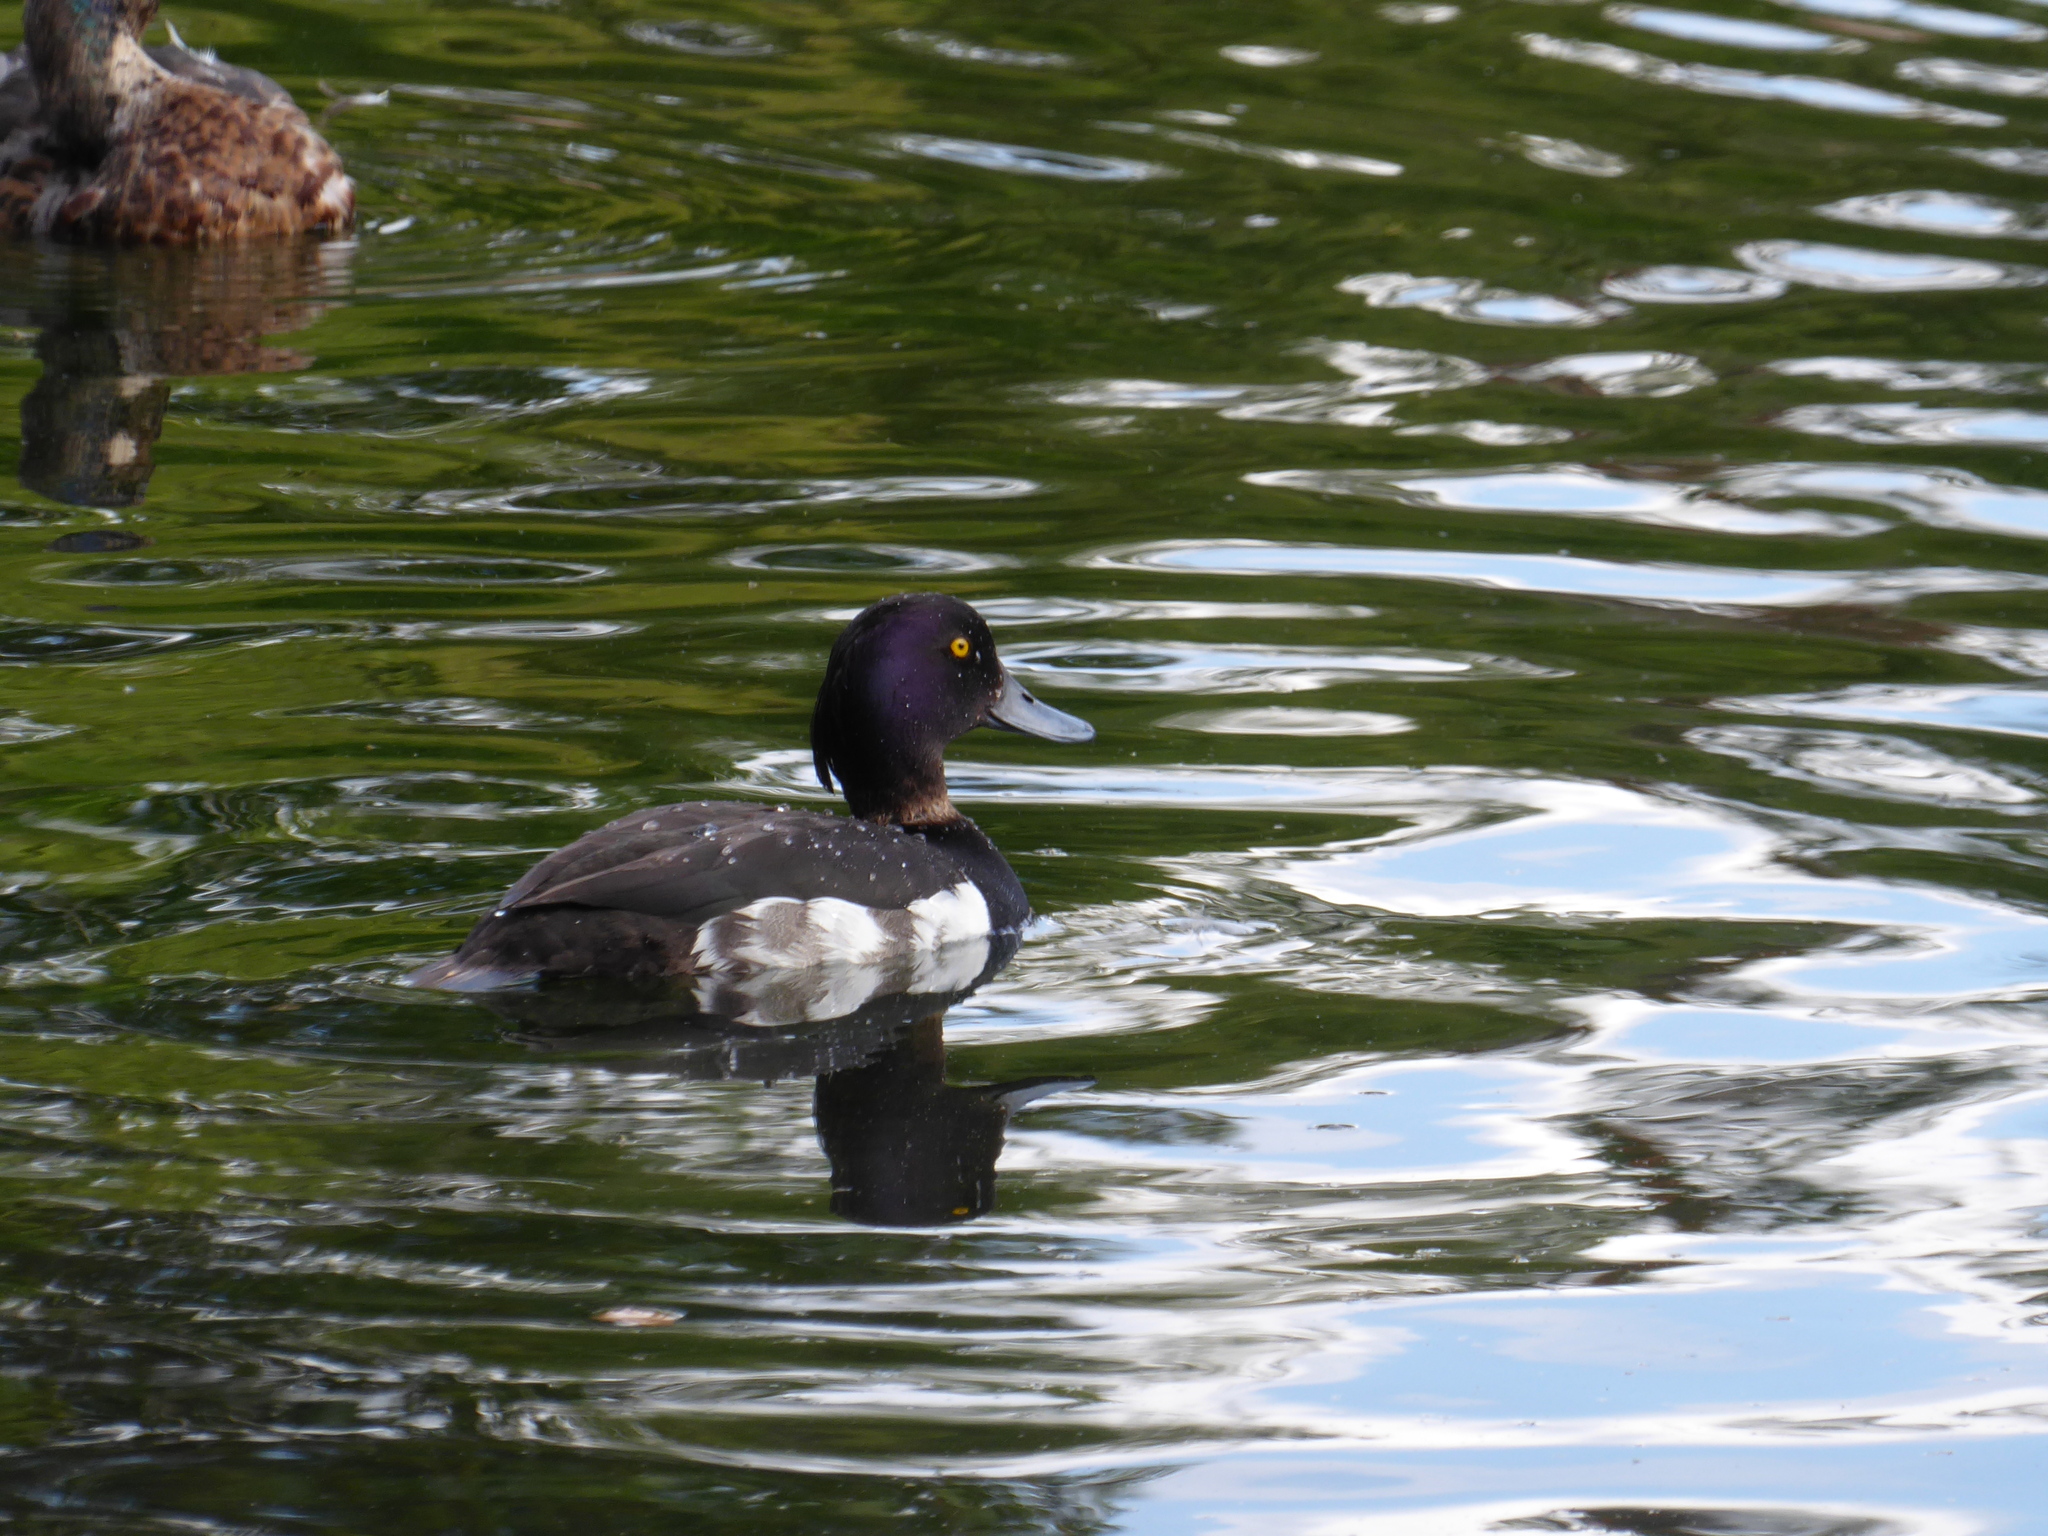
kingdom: Animalia
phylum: Chordata
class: Aves
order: Anseriformes
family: Anatidae
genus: Aythya
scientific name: Aythya fuligula
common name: Tufted duck
